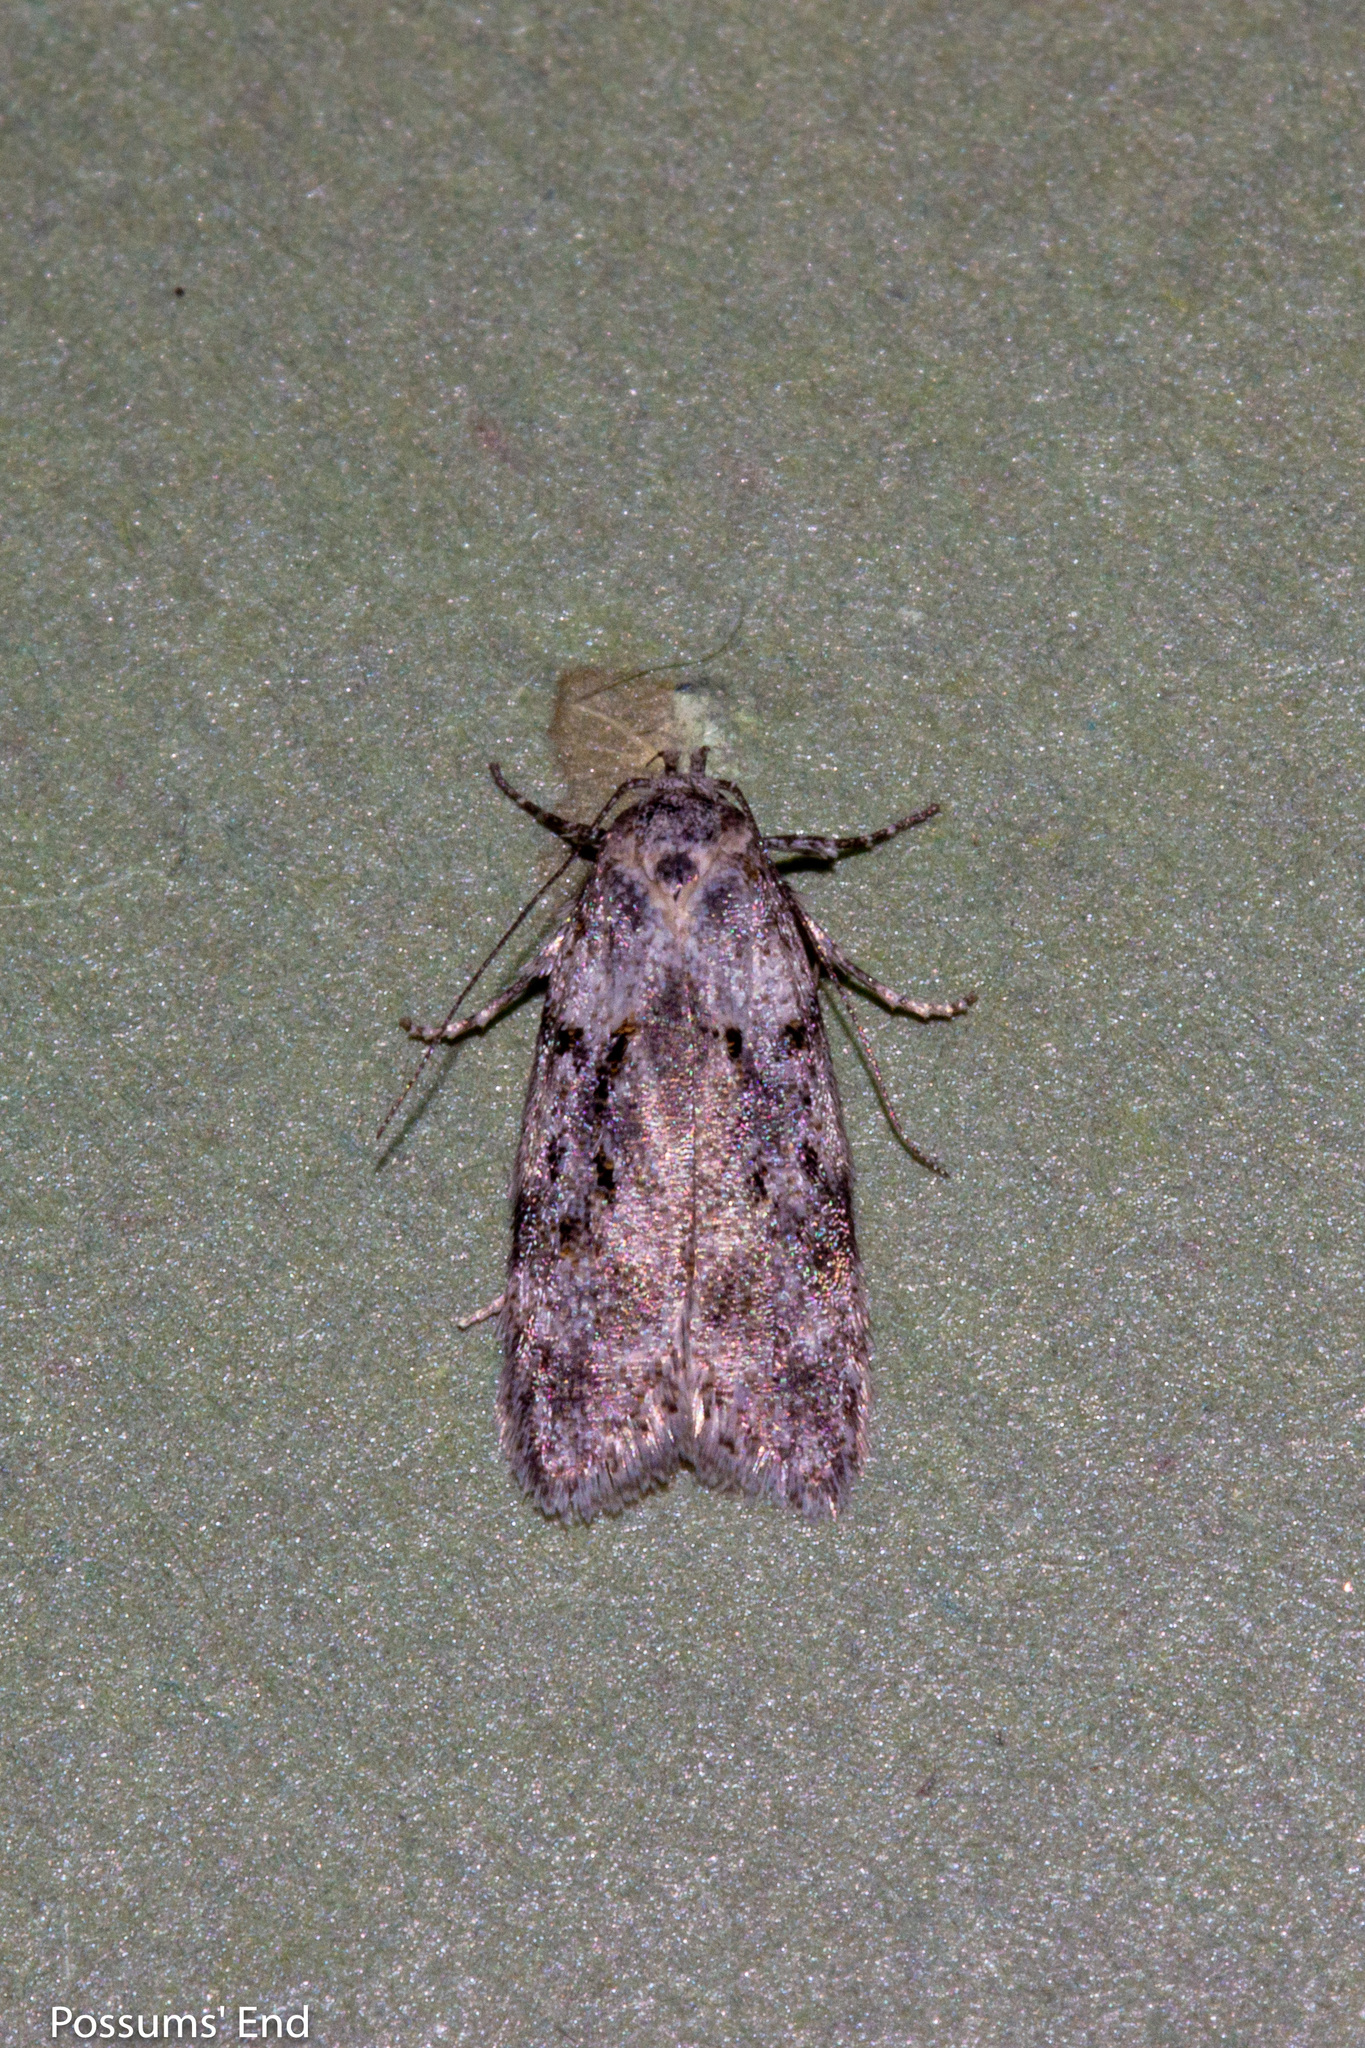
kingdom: Animalia
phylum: Arthropoda
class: Insecta
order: Lepidoptera
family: Oecophoridae
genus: Izatha
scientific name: Izatha convulsella
